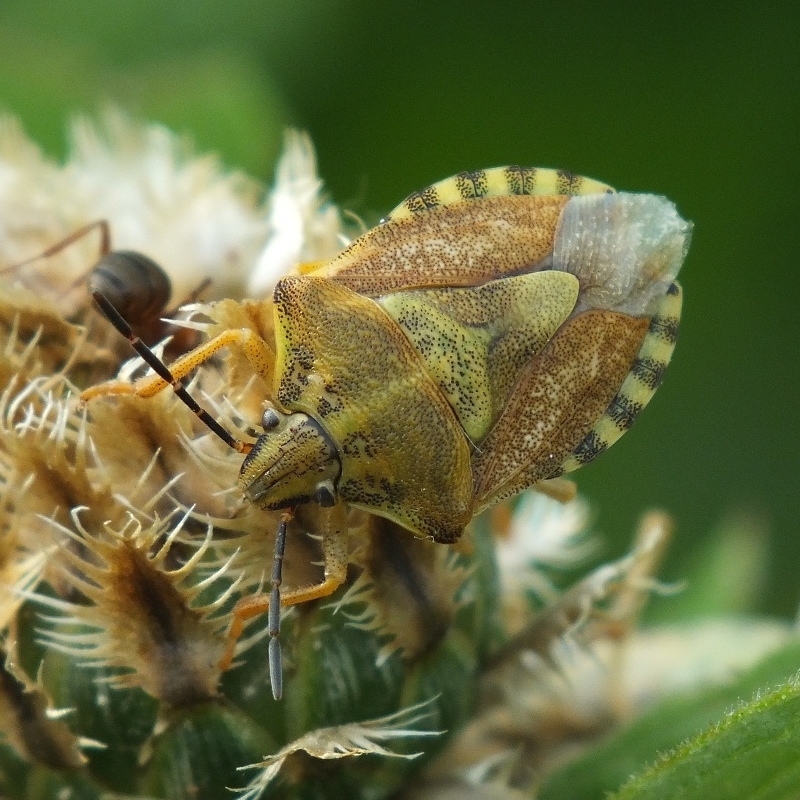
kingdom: Animalia
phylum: Arthropoda
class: Insecta
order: Hemiptera
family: Pentatomidae
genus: Carpocoris
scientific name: Carpocoris purpureipennis
